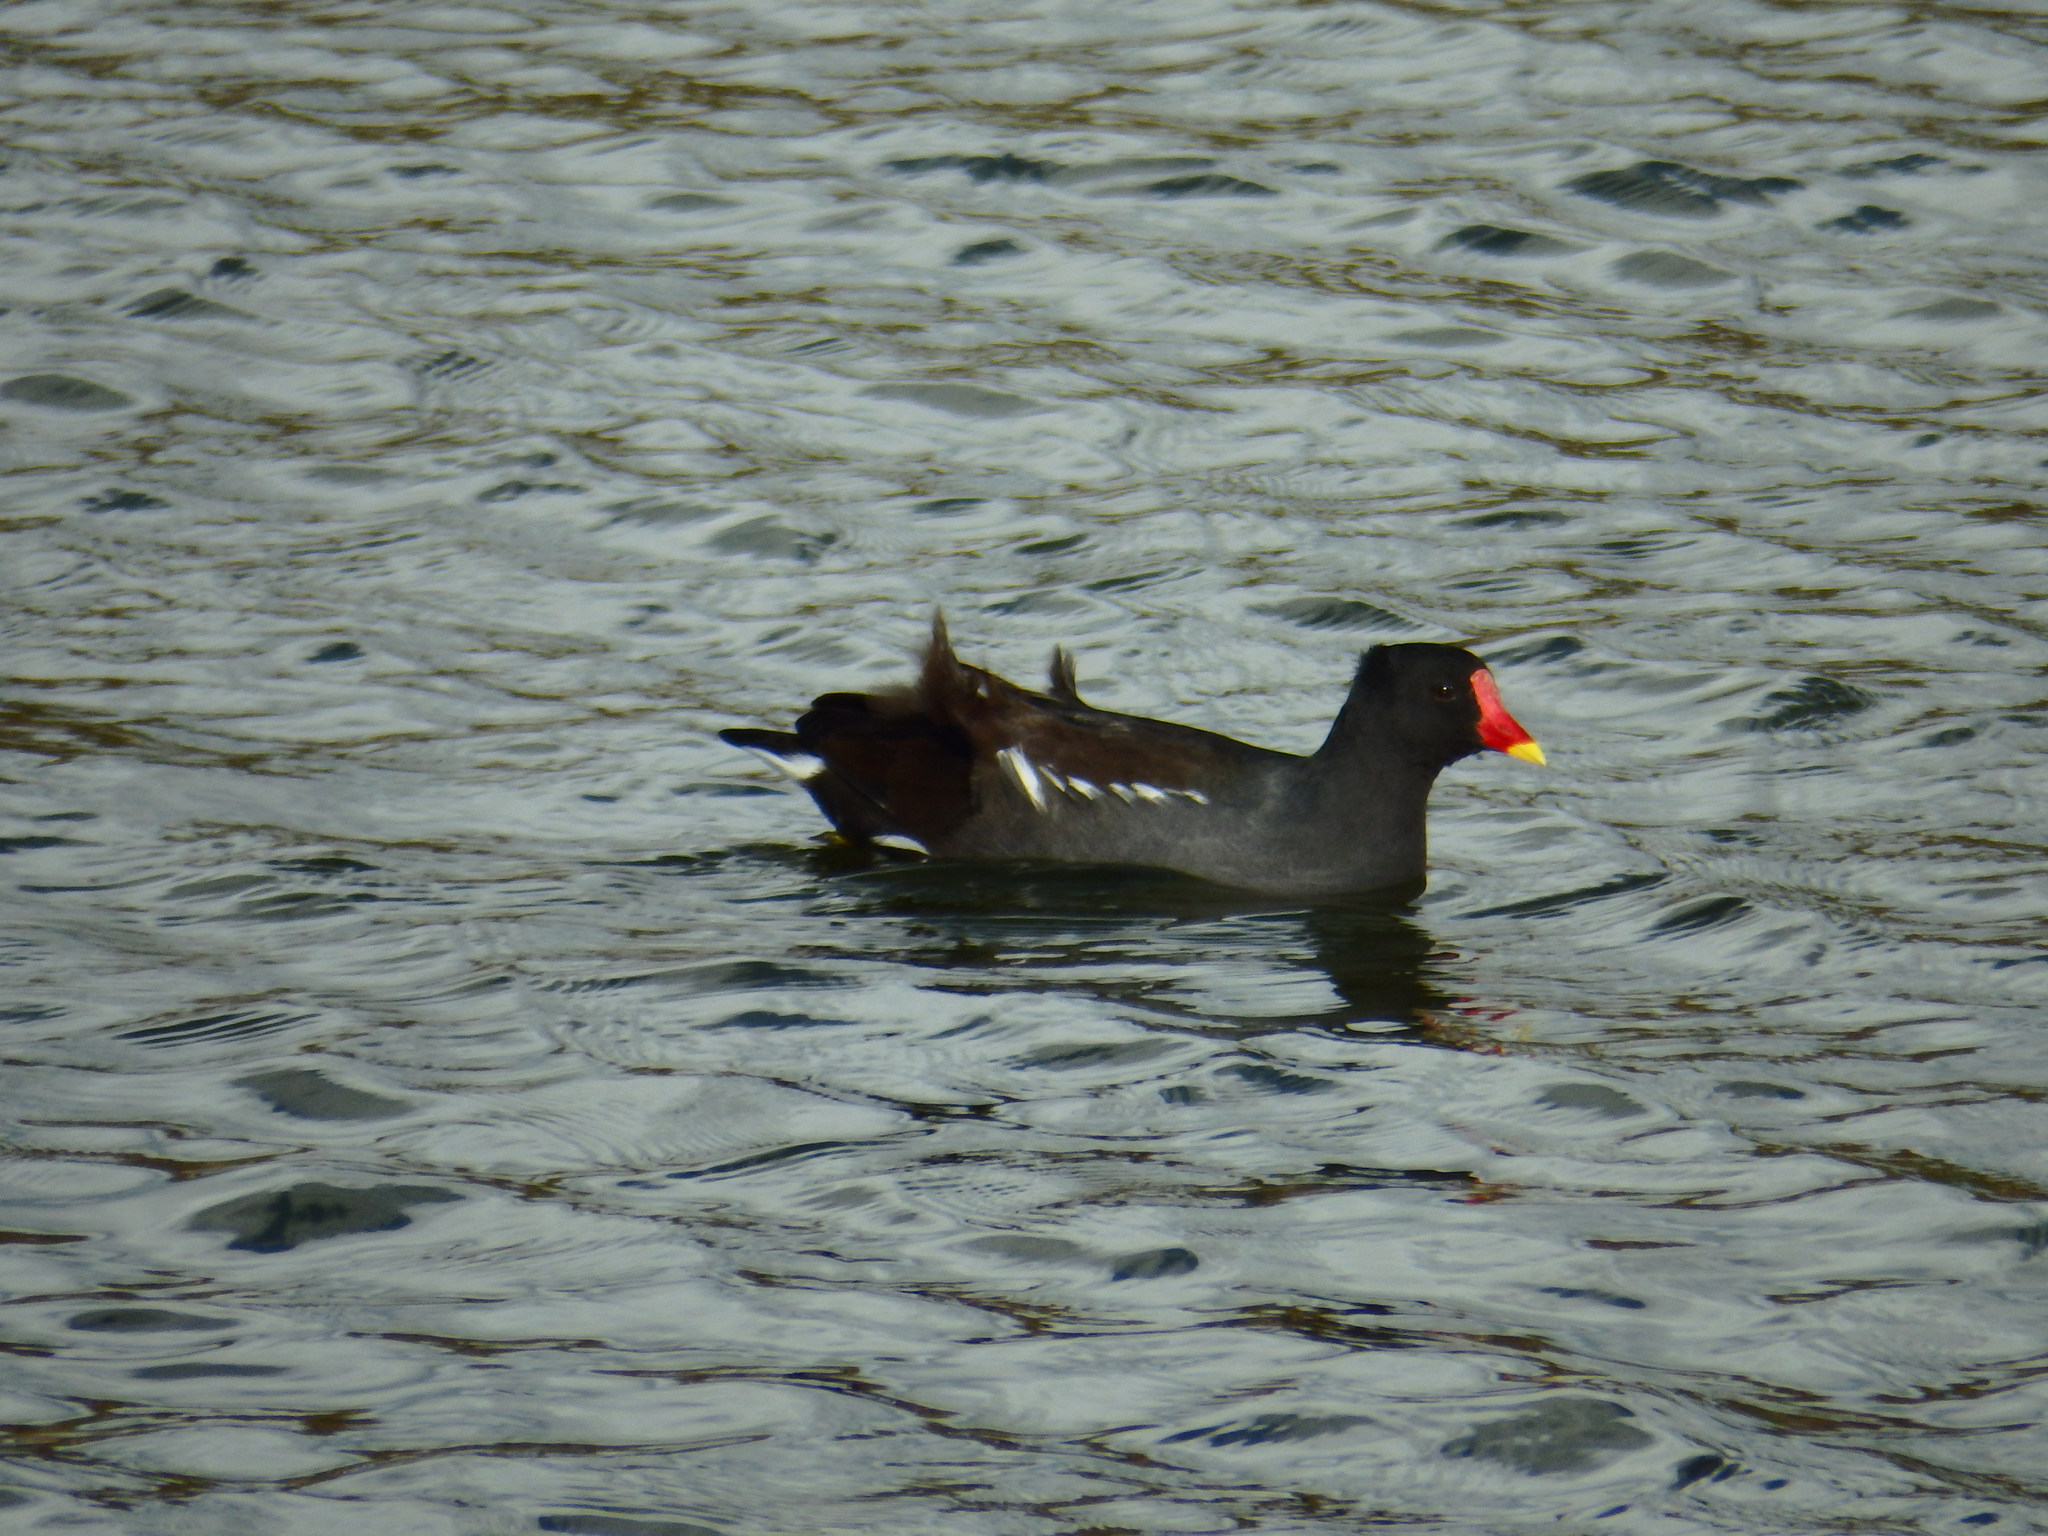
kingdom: Animalia
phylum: Chordata
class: Aves
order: Gruiformes
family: Rallidae
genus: Gallinula
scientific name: Gallinula chloropus
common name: Common moorhen
